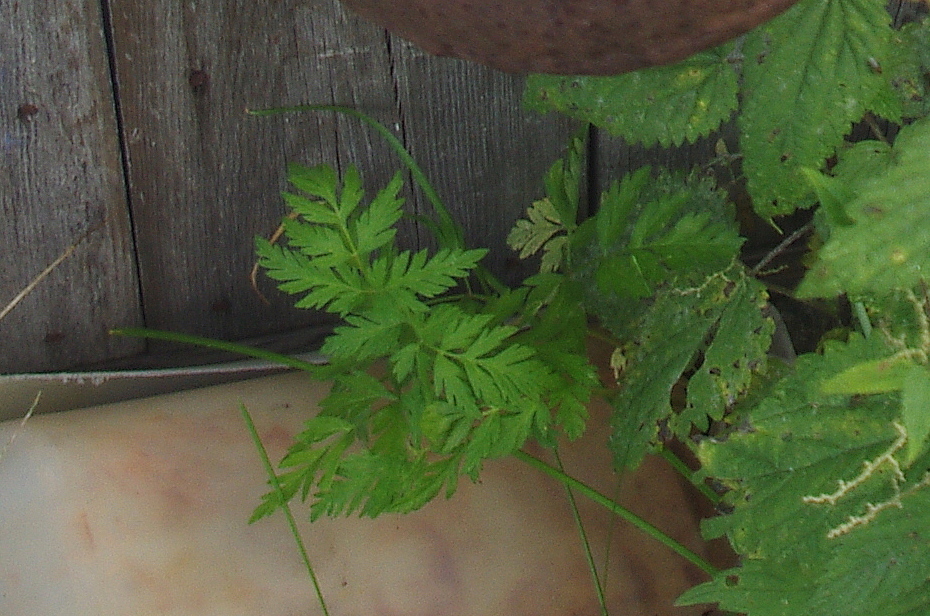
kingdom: Plantae
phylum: Tracheophyta
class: Magnoliopsida
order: Apiales
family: Apiaceae
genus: Anthriscus
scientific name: Anthriscus sylvestris
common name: Cow parsley
